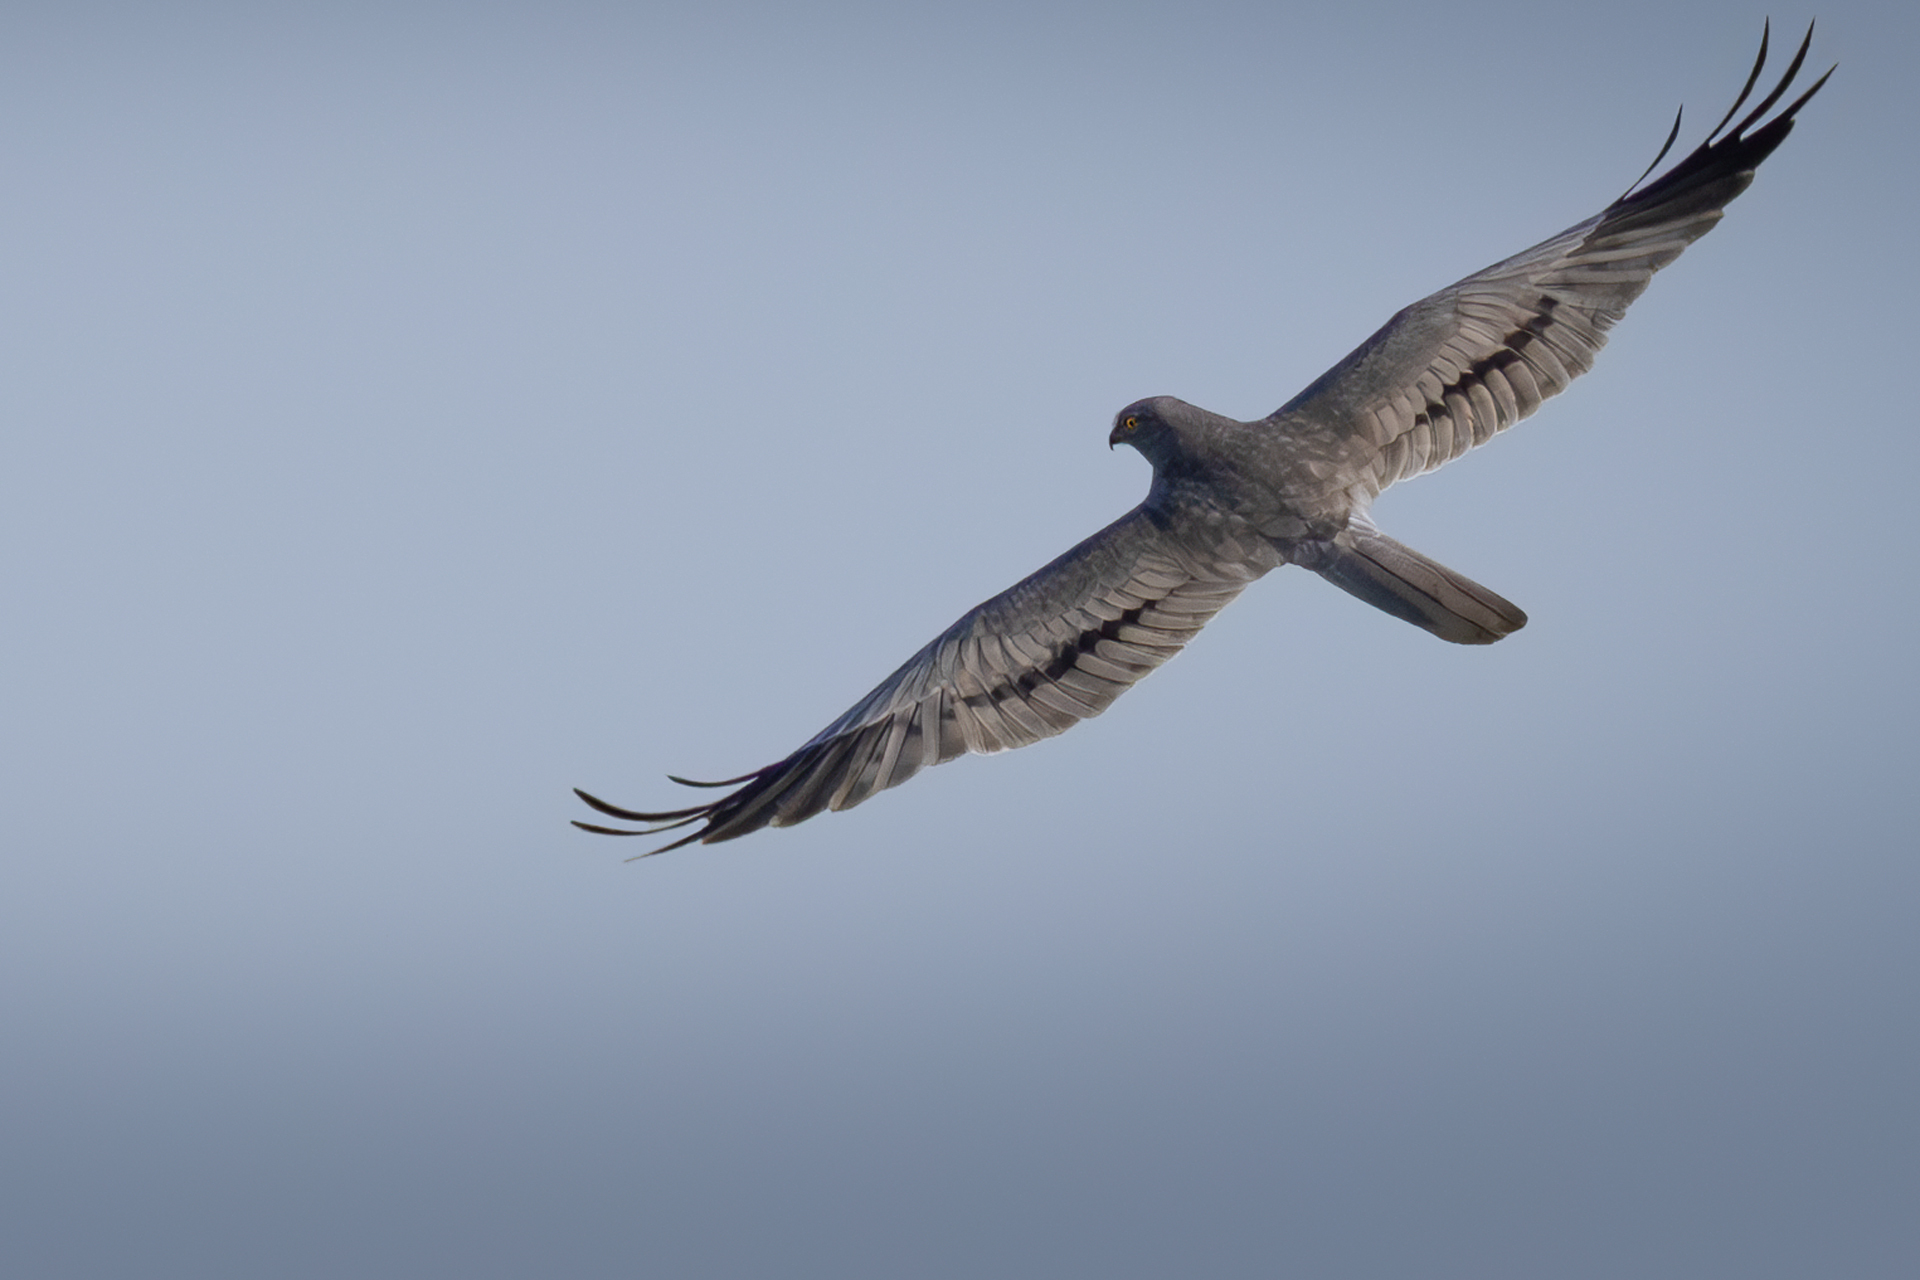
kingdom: Animalia
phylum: Chordata
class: Aves
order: Accipitriformes
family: Accipitridae
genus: Circus
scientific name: Circus pygargus
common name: Montagu's harrier
